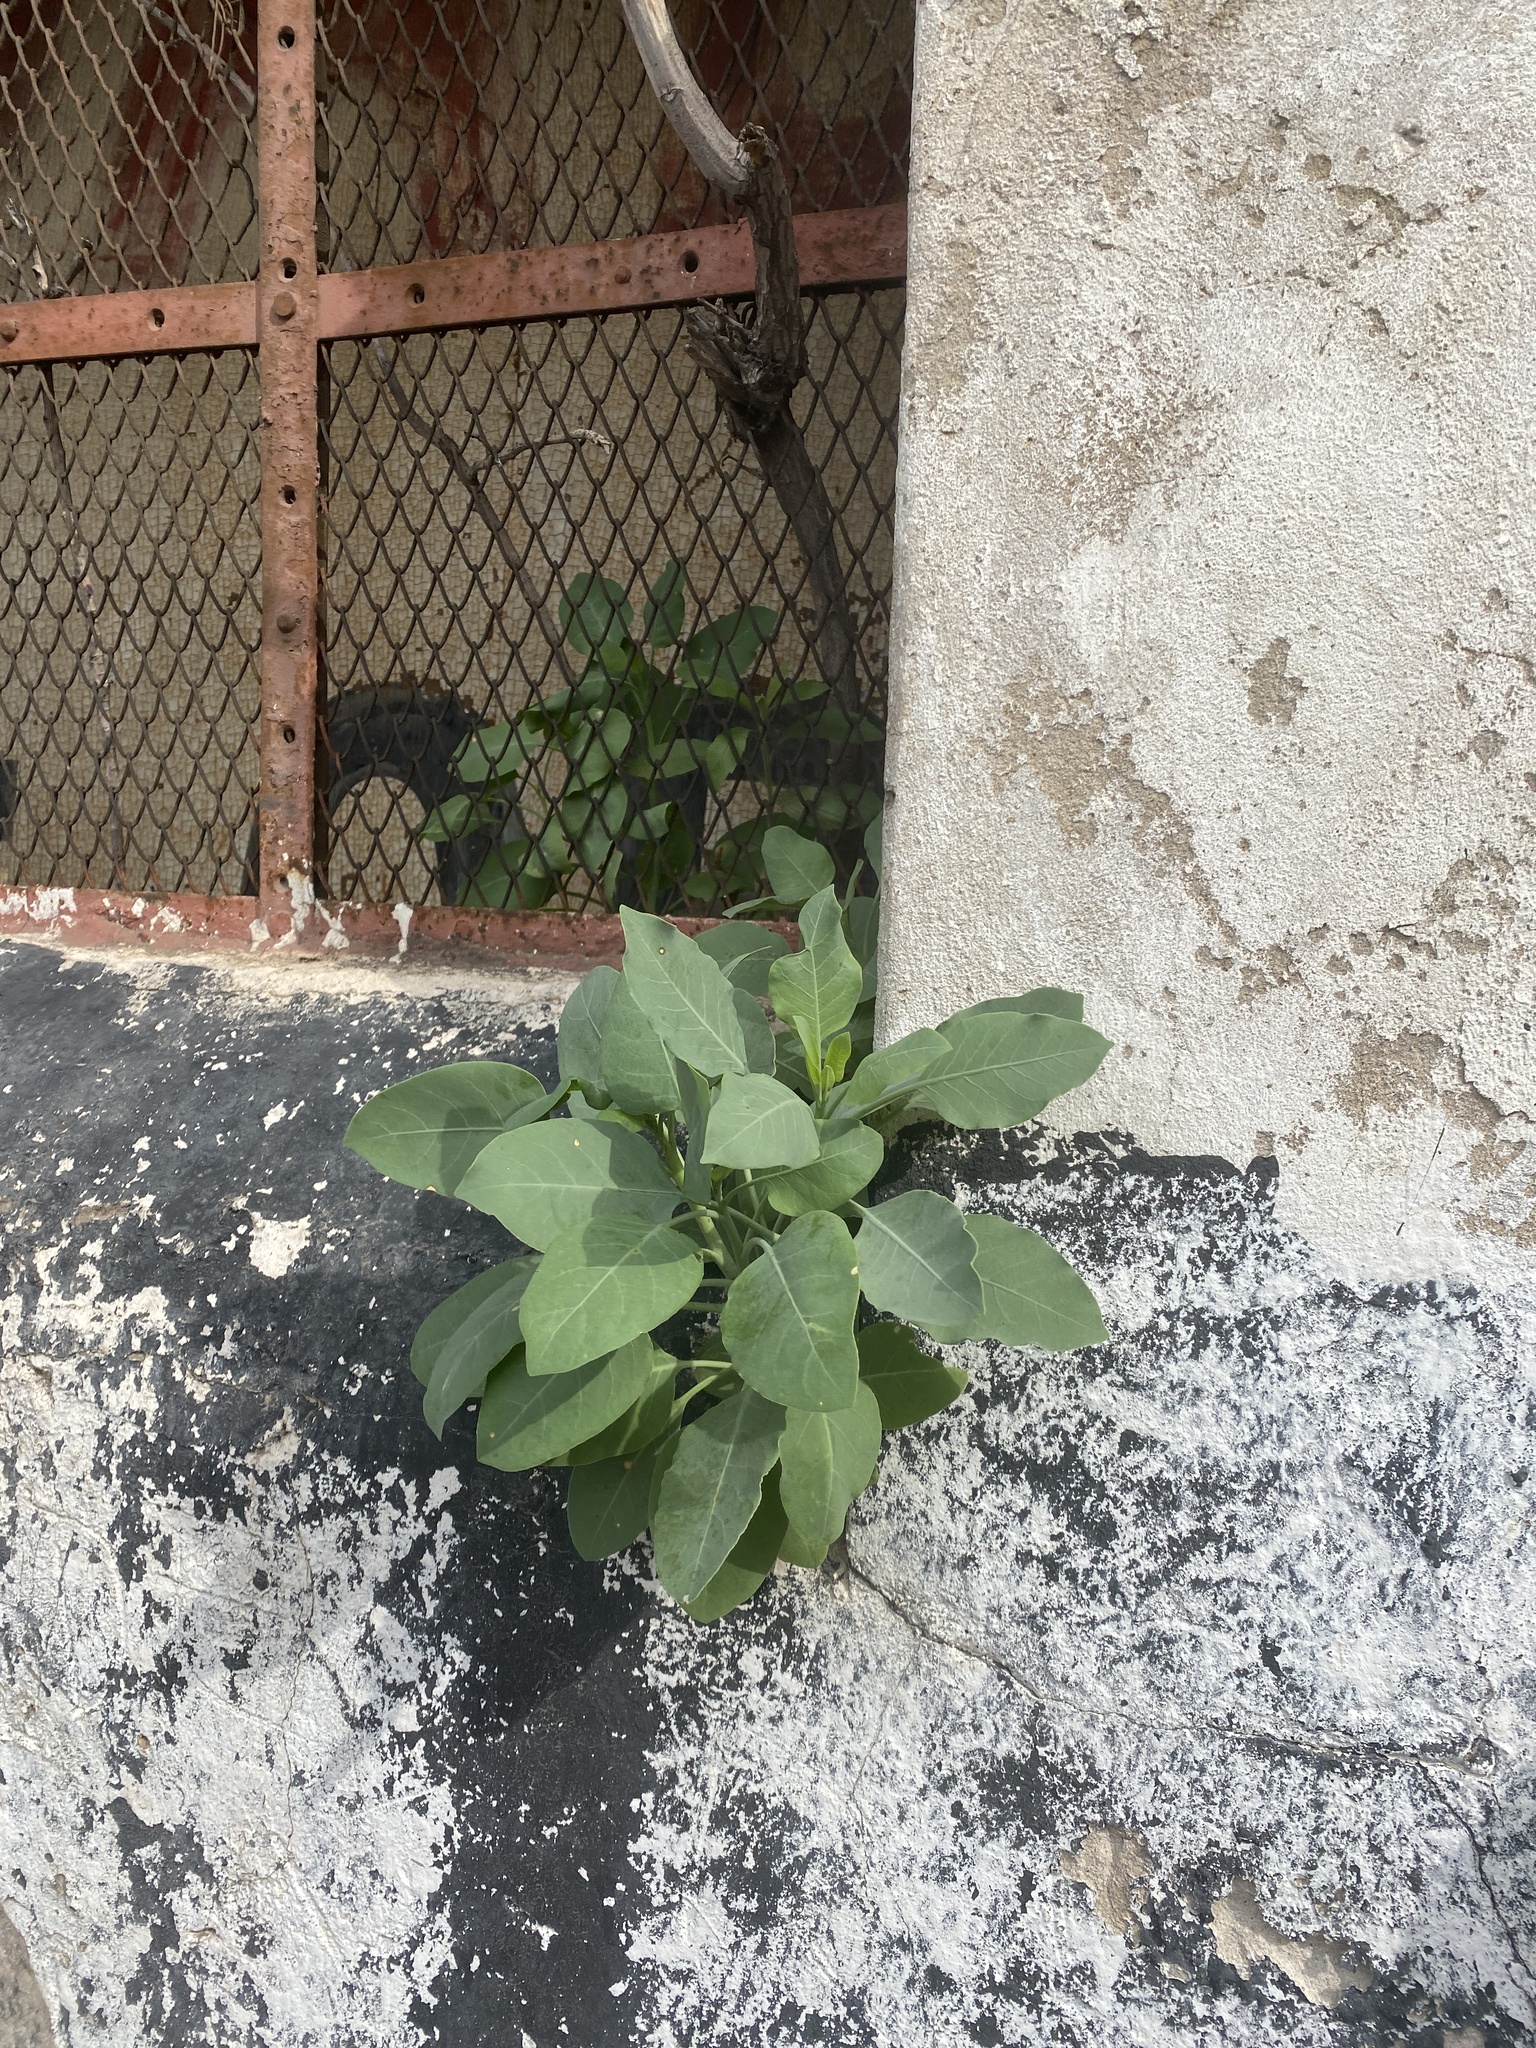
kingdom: Plantae
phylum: Tracheophyta
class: Magnoliopsida
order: Solanales
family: Solanaceae
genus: Nicotiana
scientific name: Nicotiana glauca
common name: Tree tobacco
